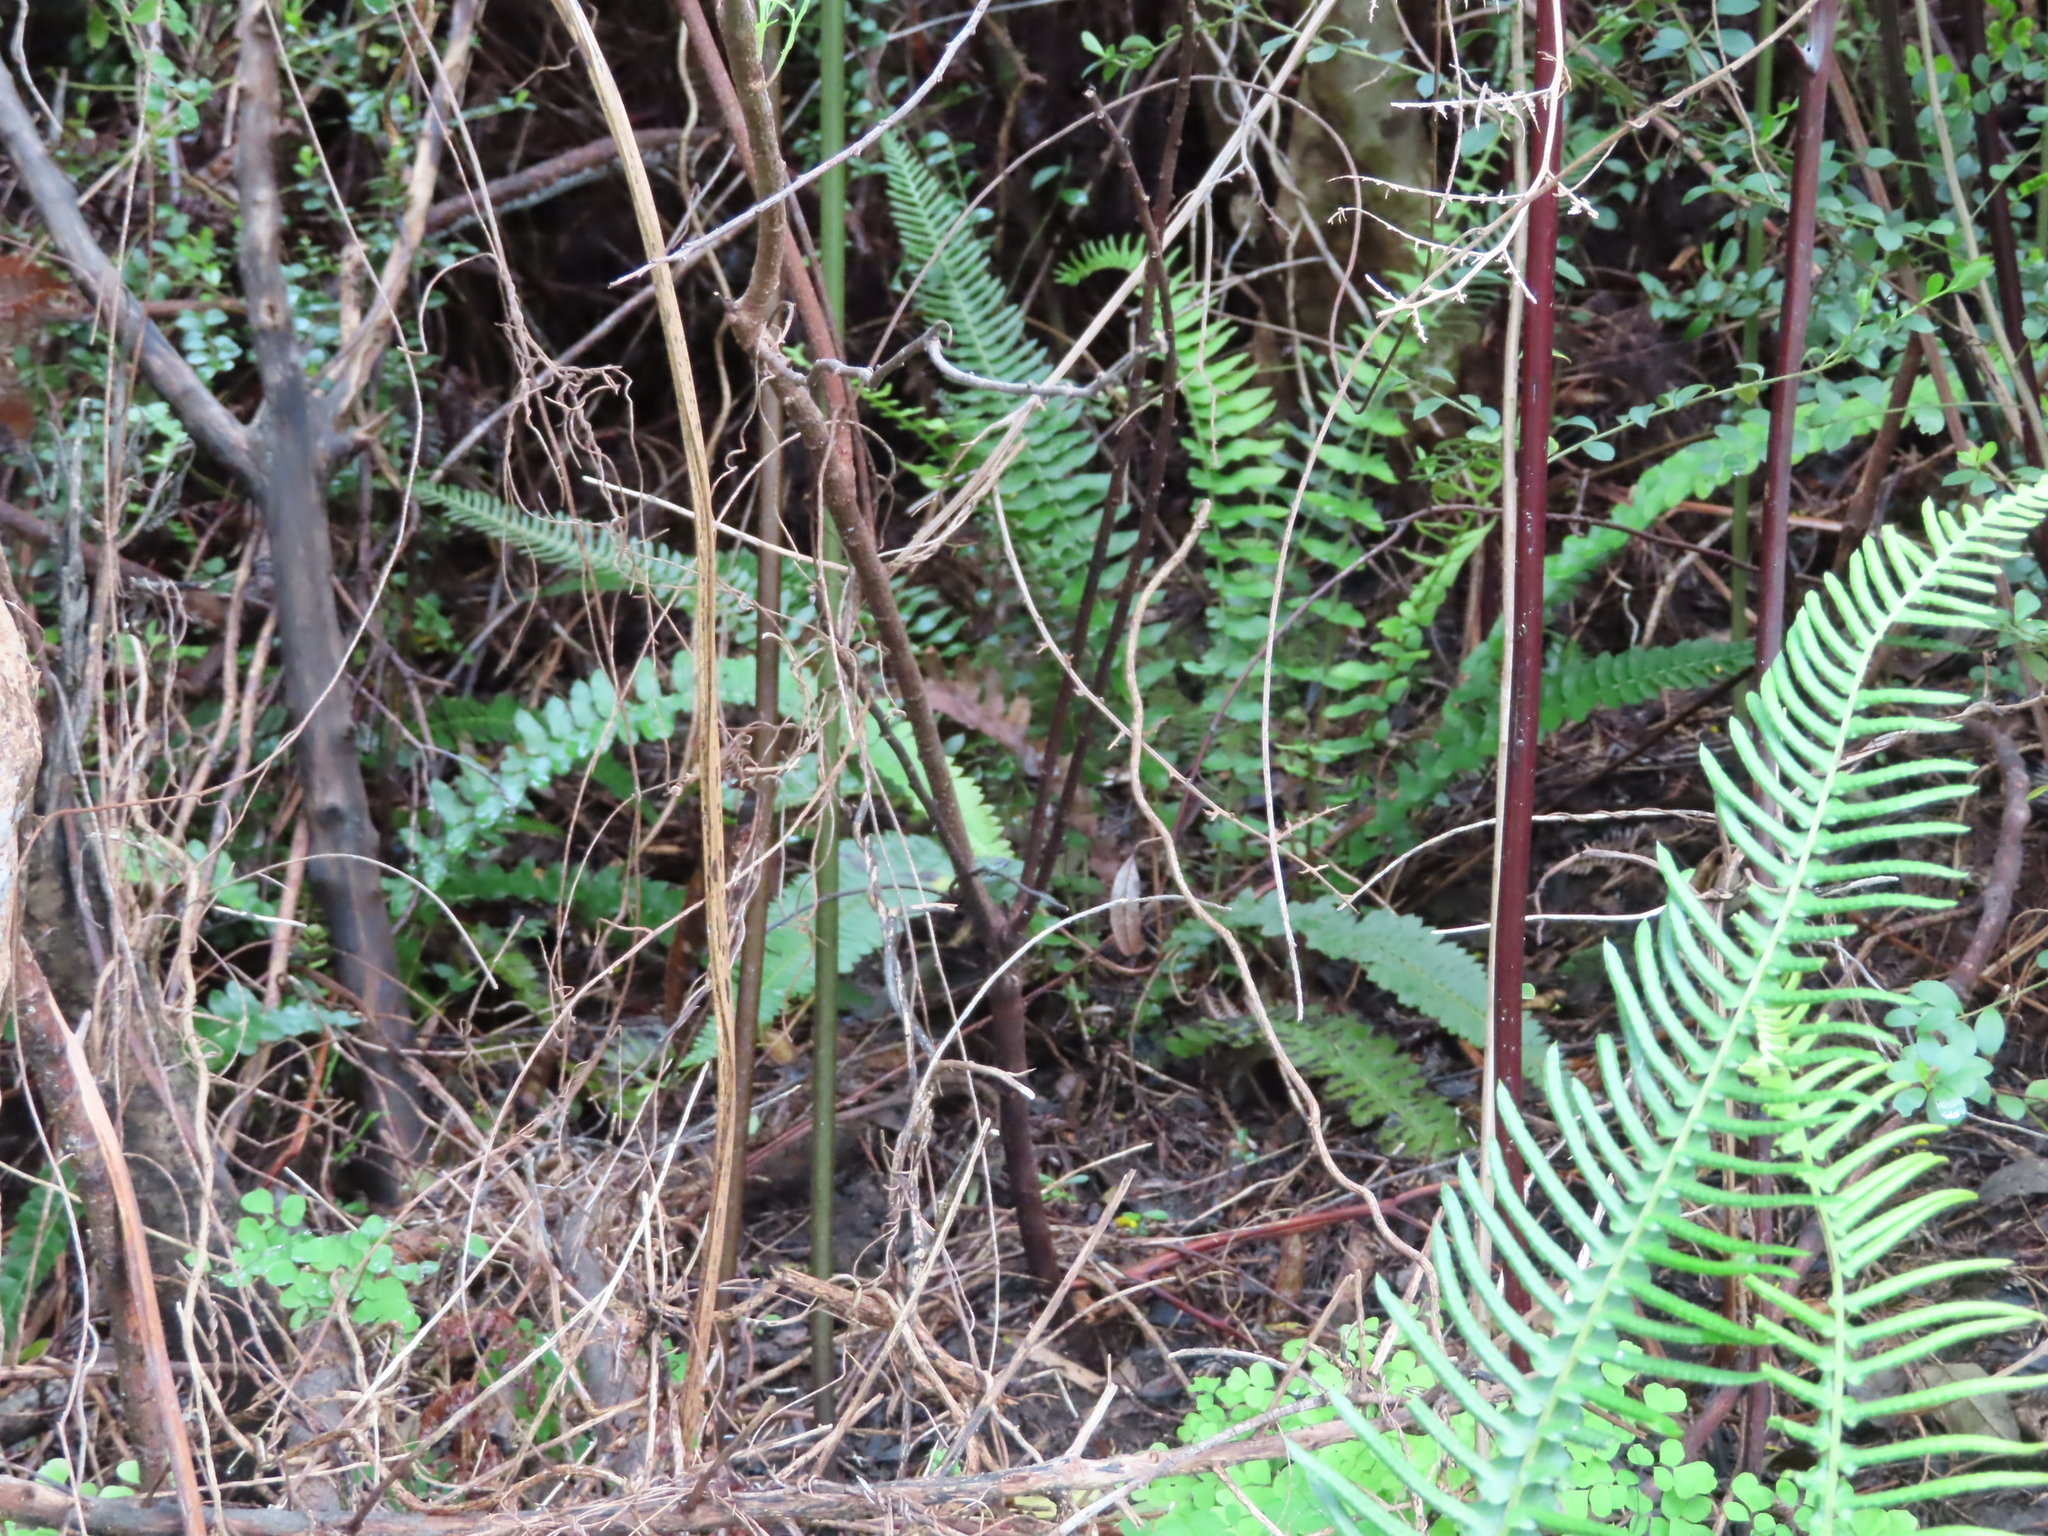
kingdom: Plantae
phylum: Tracheophyta
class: Polypodiopsida
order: Polypodiales
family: Blechnaceae
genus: Blechnum
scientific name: Blechnum australe
